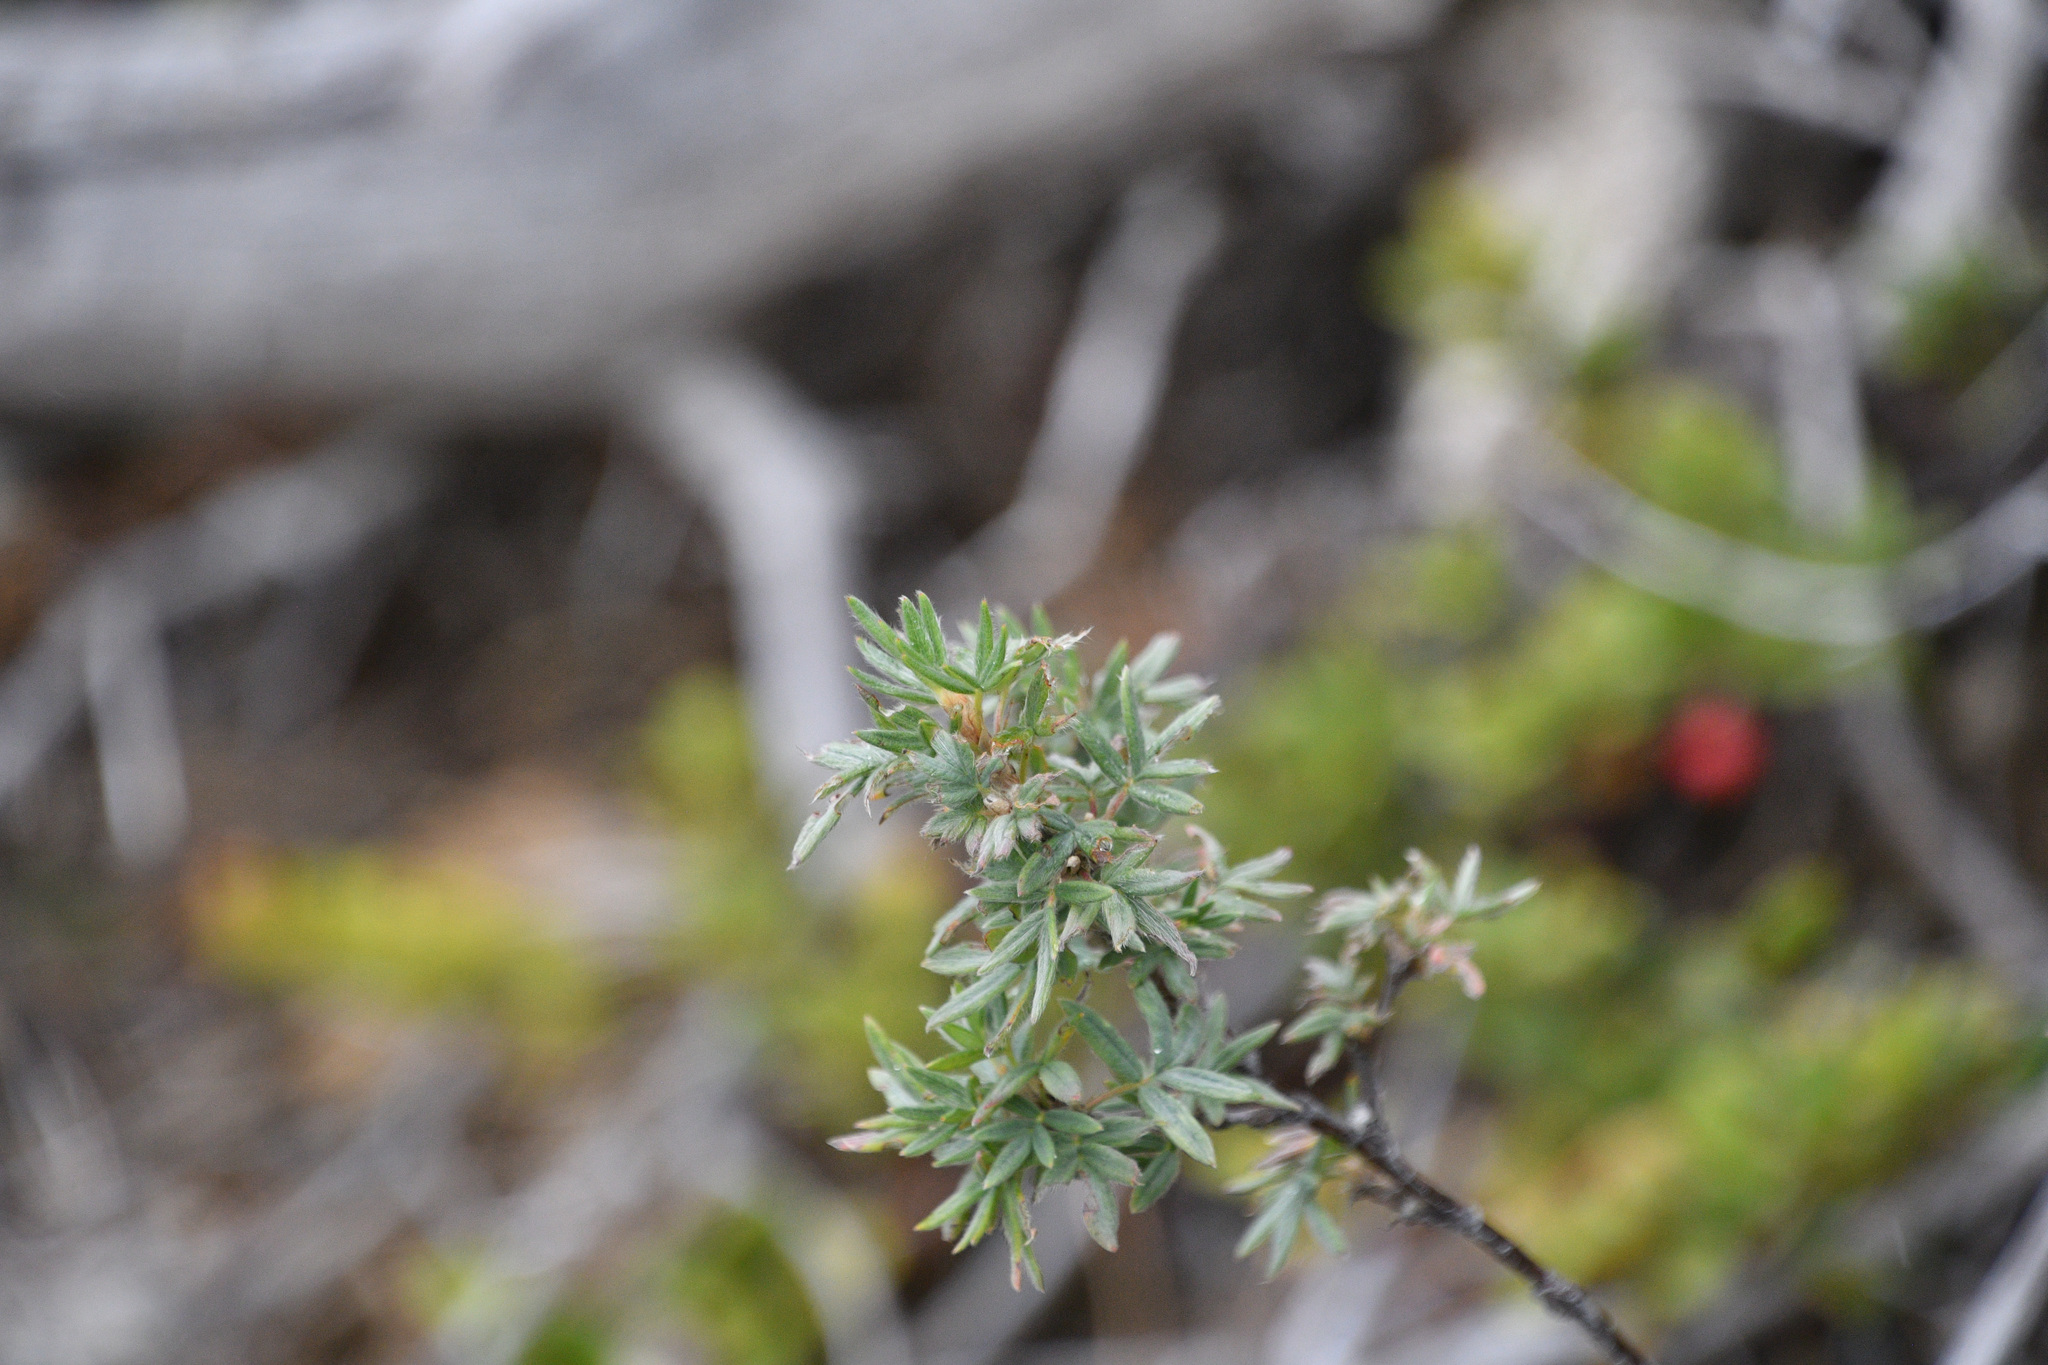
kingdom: Plantae
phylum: Tracheophyta
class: Magnoliopsida
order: Rosales
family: Rosaceae
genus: Dasiphora
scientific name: Dasiphora fruticosa
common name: Shrubby cinquefoil
